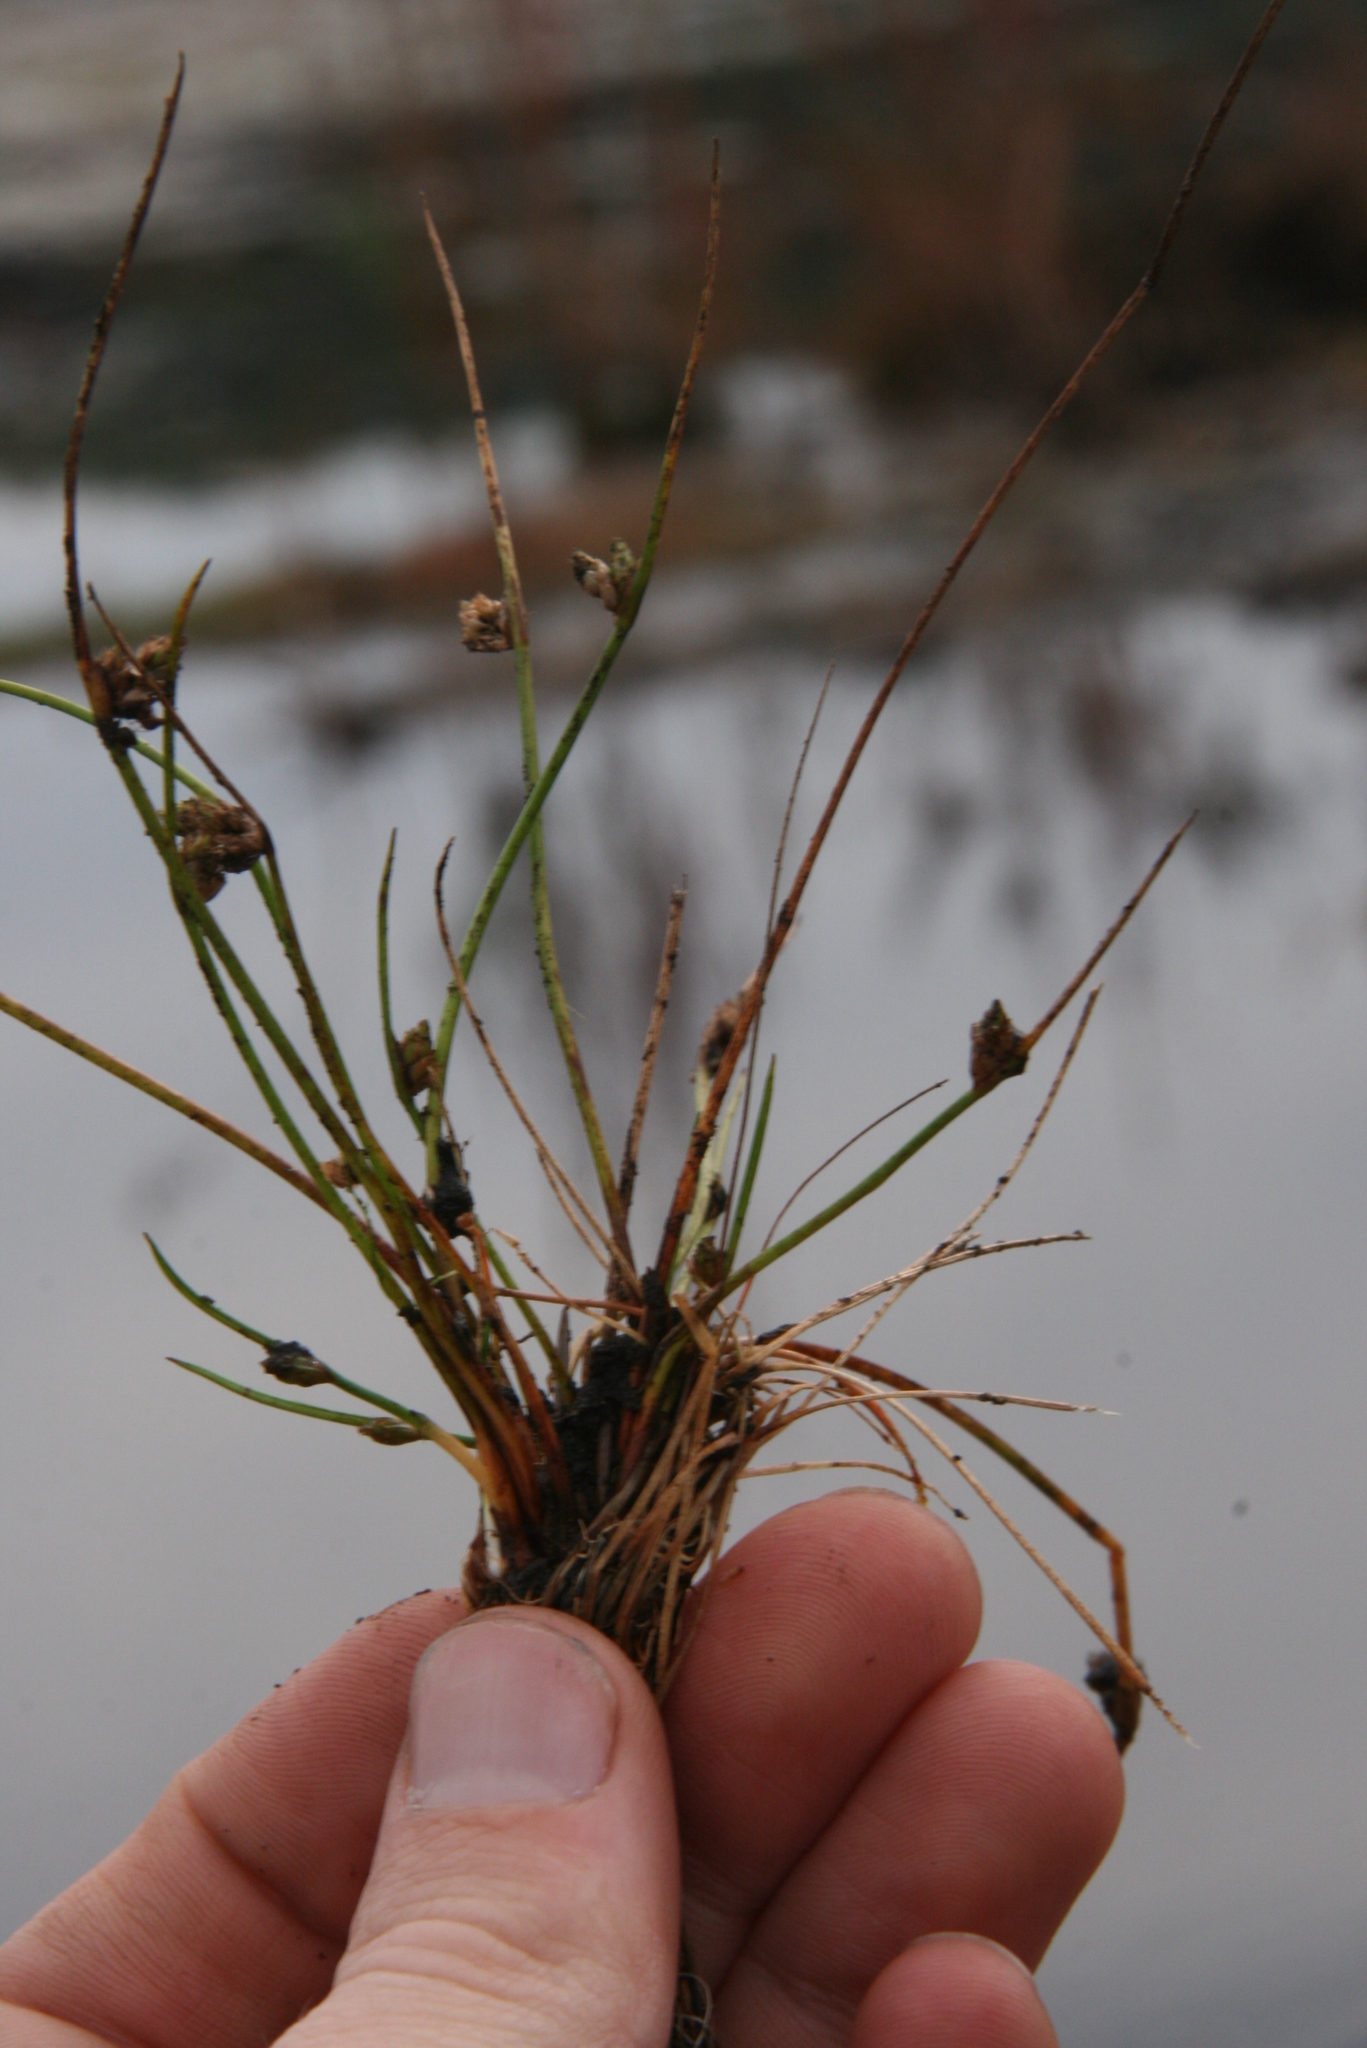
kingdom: Plantae
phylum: Tracheophyta
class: Liliopsida
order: Poales
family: Cyperaceae
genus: Schoenoplectiella
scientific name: Schoenoplectiella smithii
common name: Smith's bulrush
